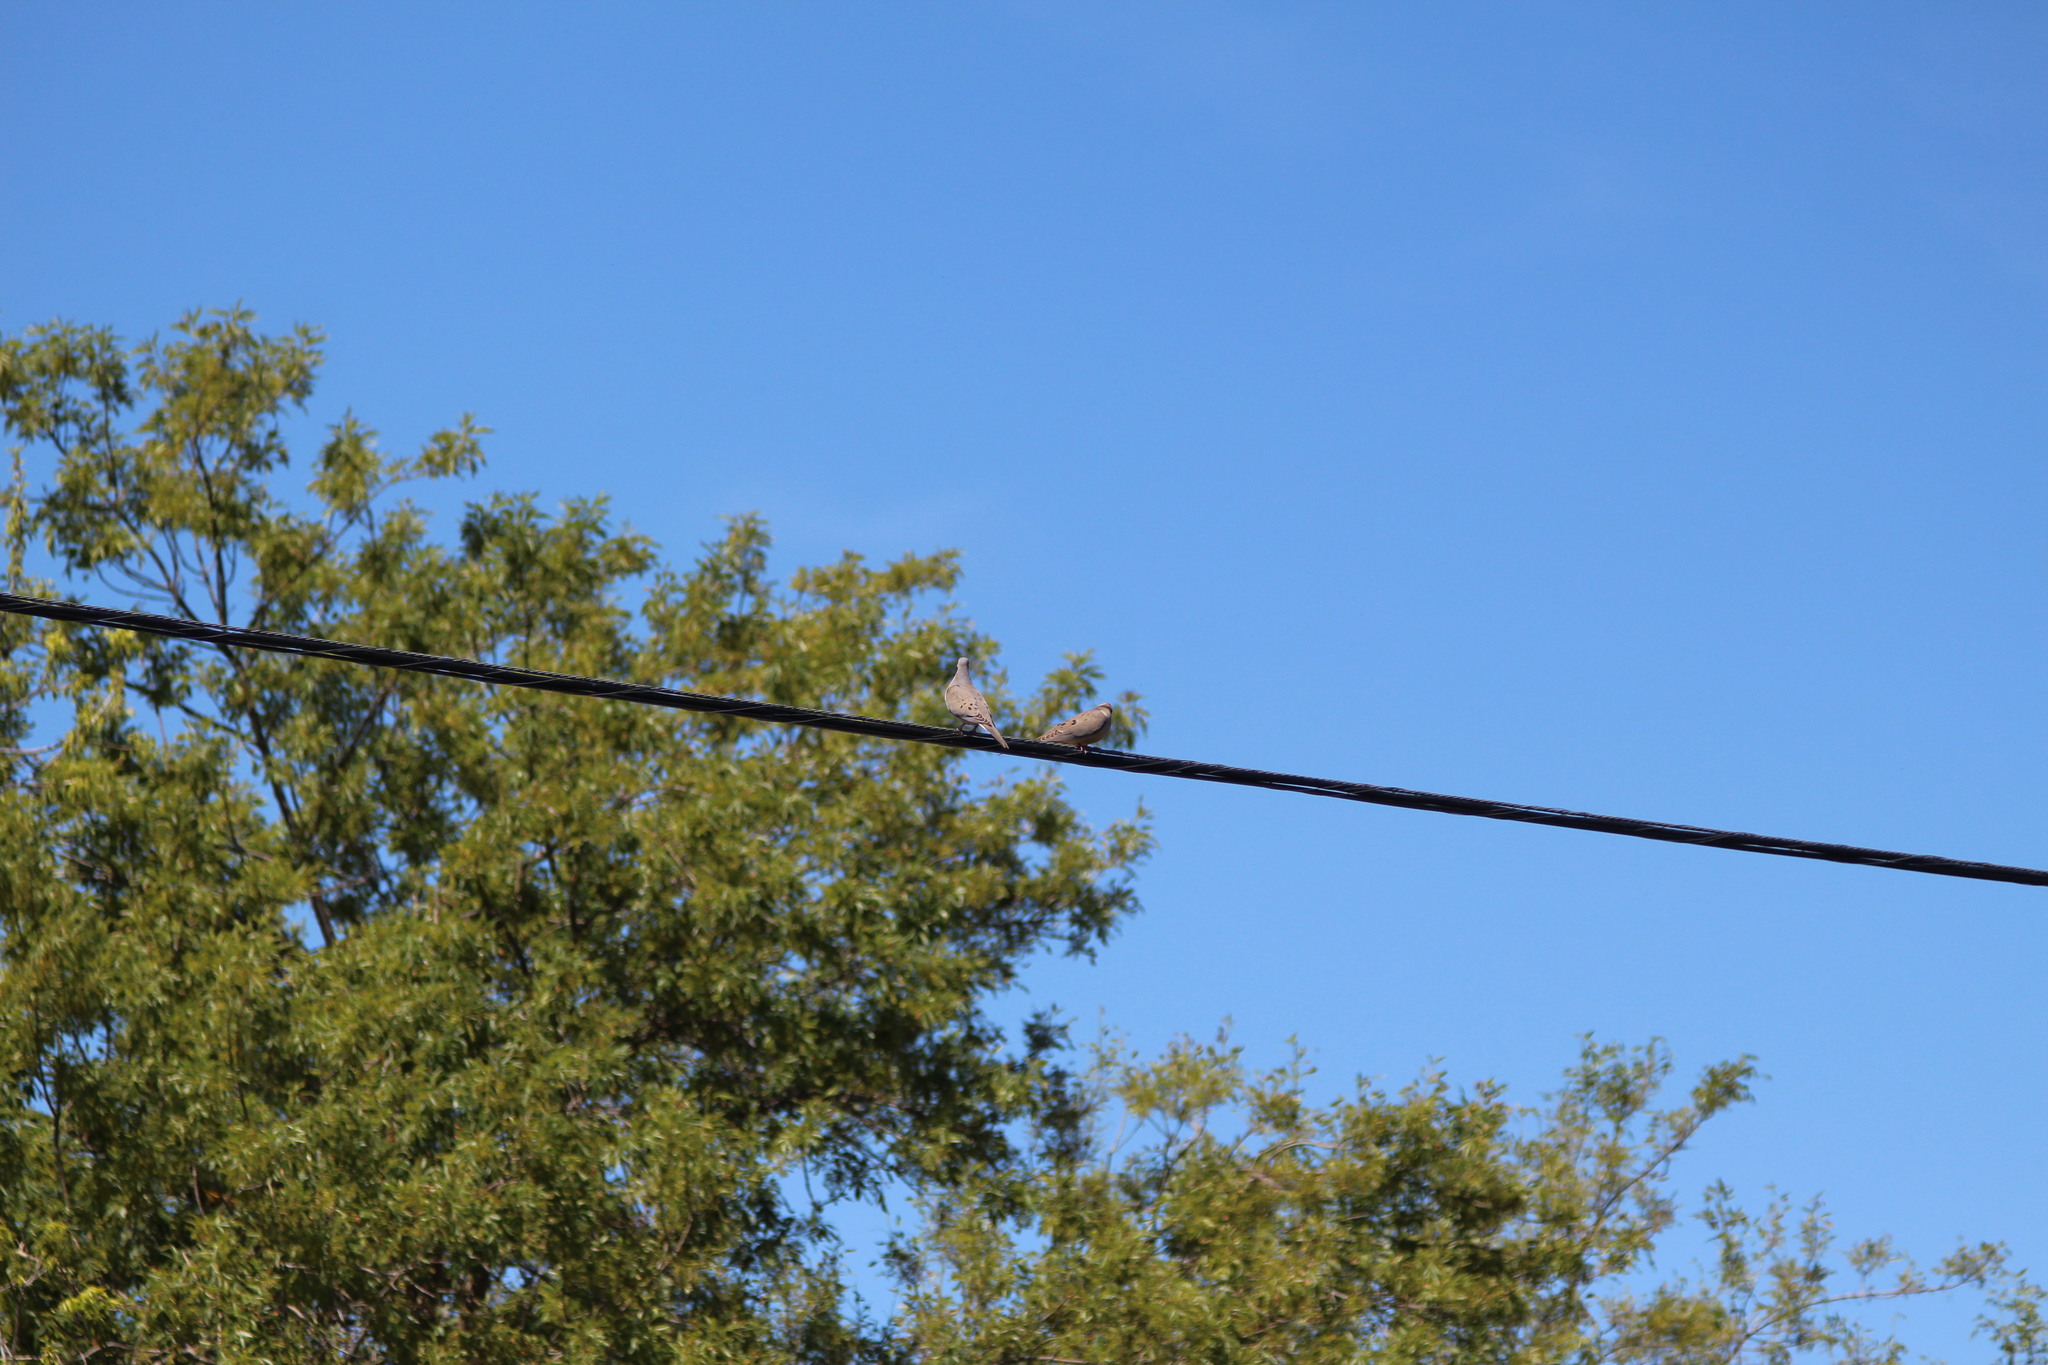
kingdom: Animalia
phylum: Chordata
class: Aves
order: Columbiformes
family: Columbidae
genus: Zenaida
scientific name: Zenaida macroura
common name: Mourning dove
